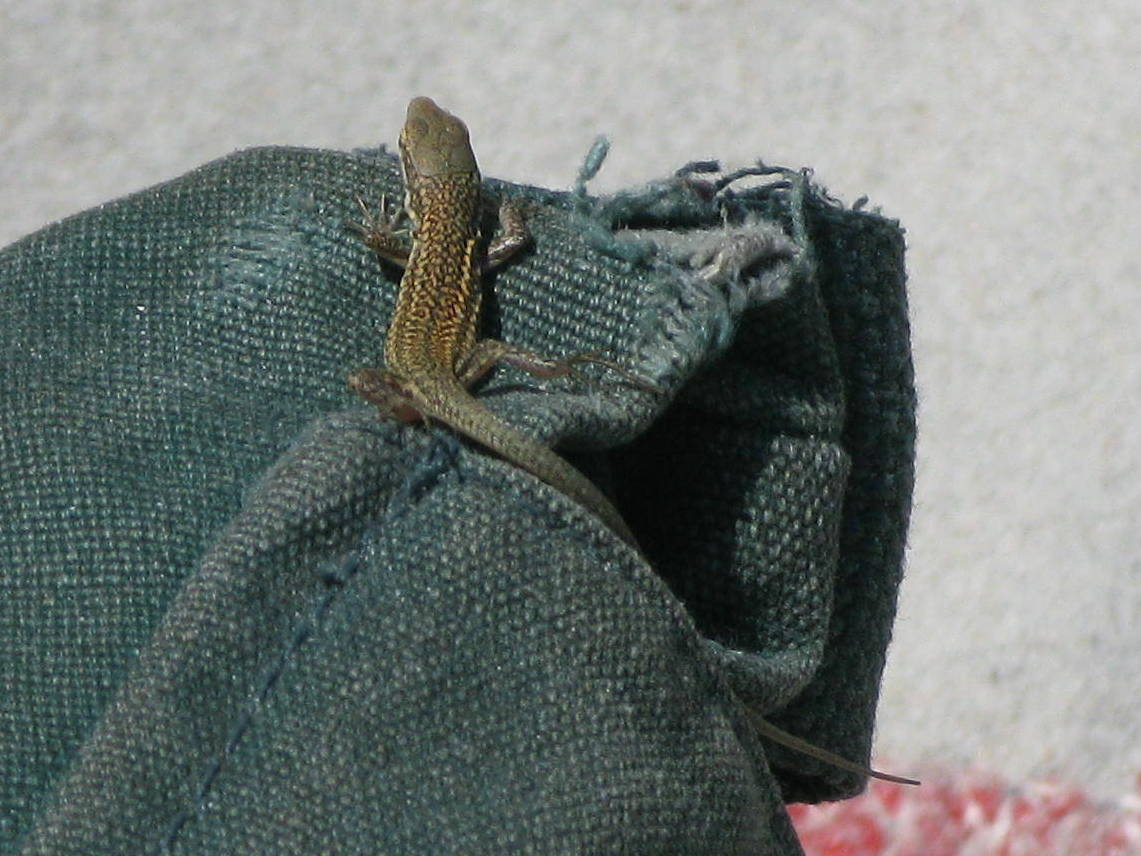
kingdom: Animalia
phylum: Chordata
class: Squamata
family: Lacertidae
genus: Podarcis
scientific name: Podarcis tiliguerta
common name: Tyrrhenian wall lizard
